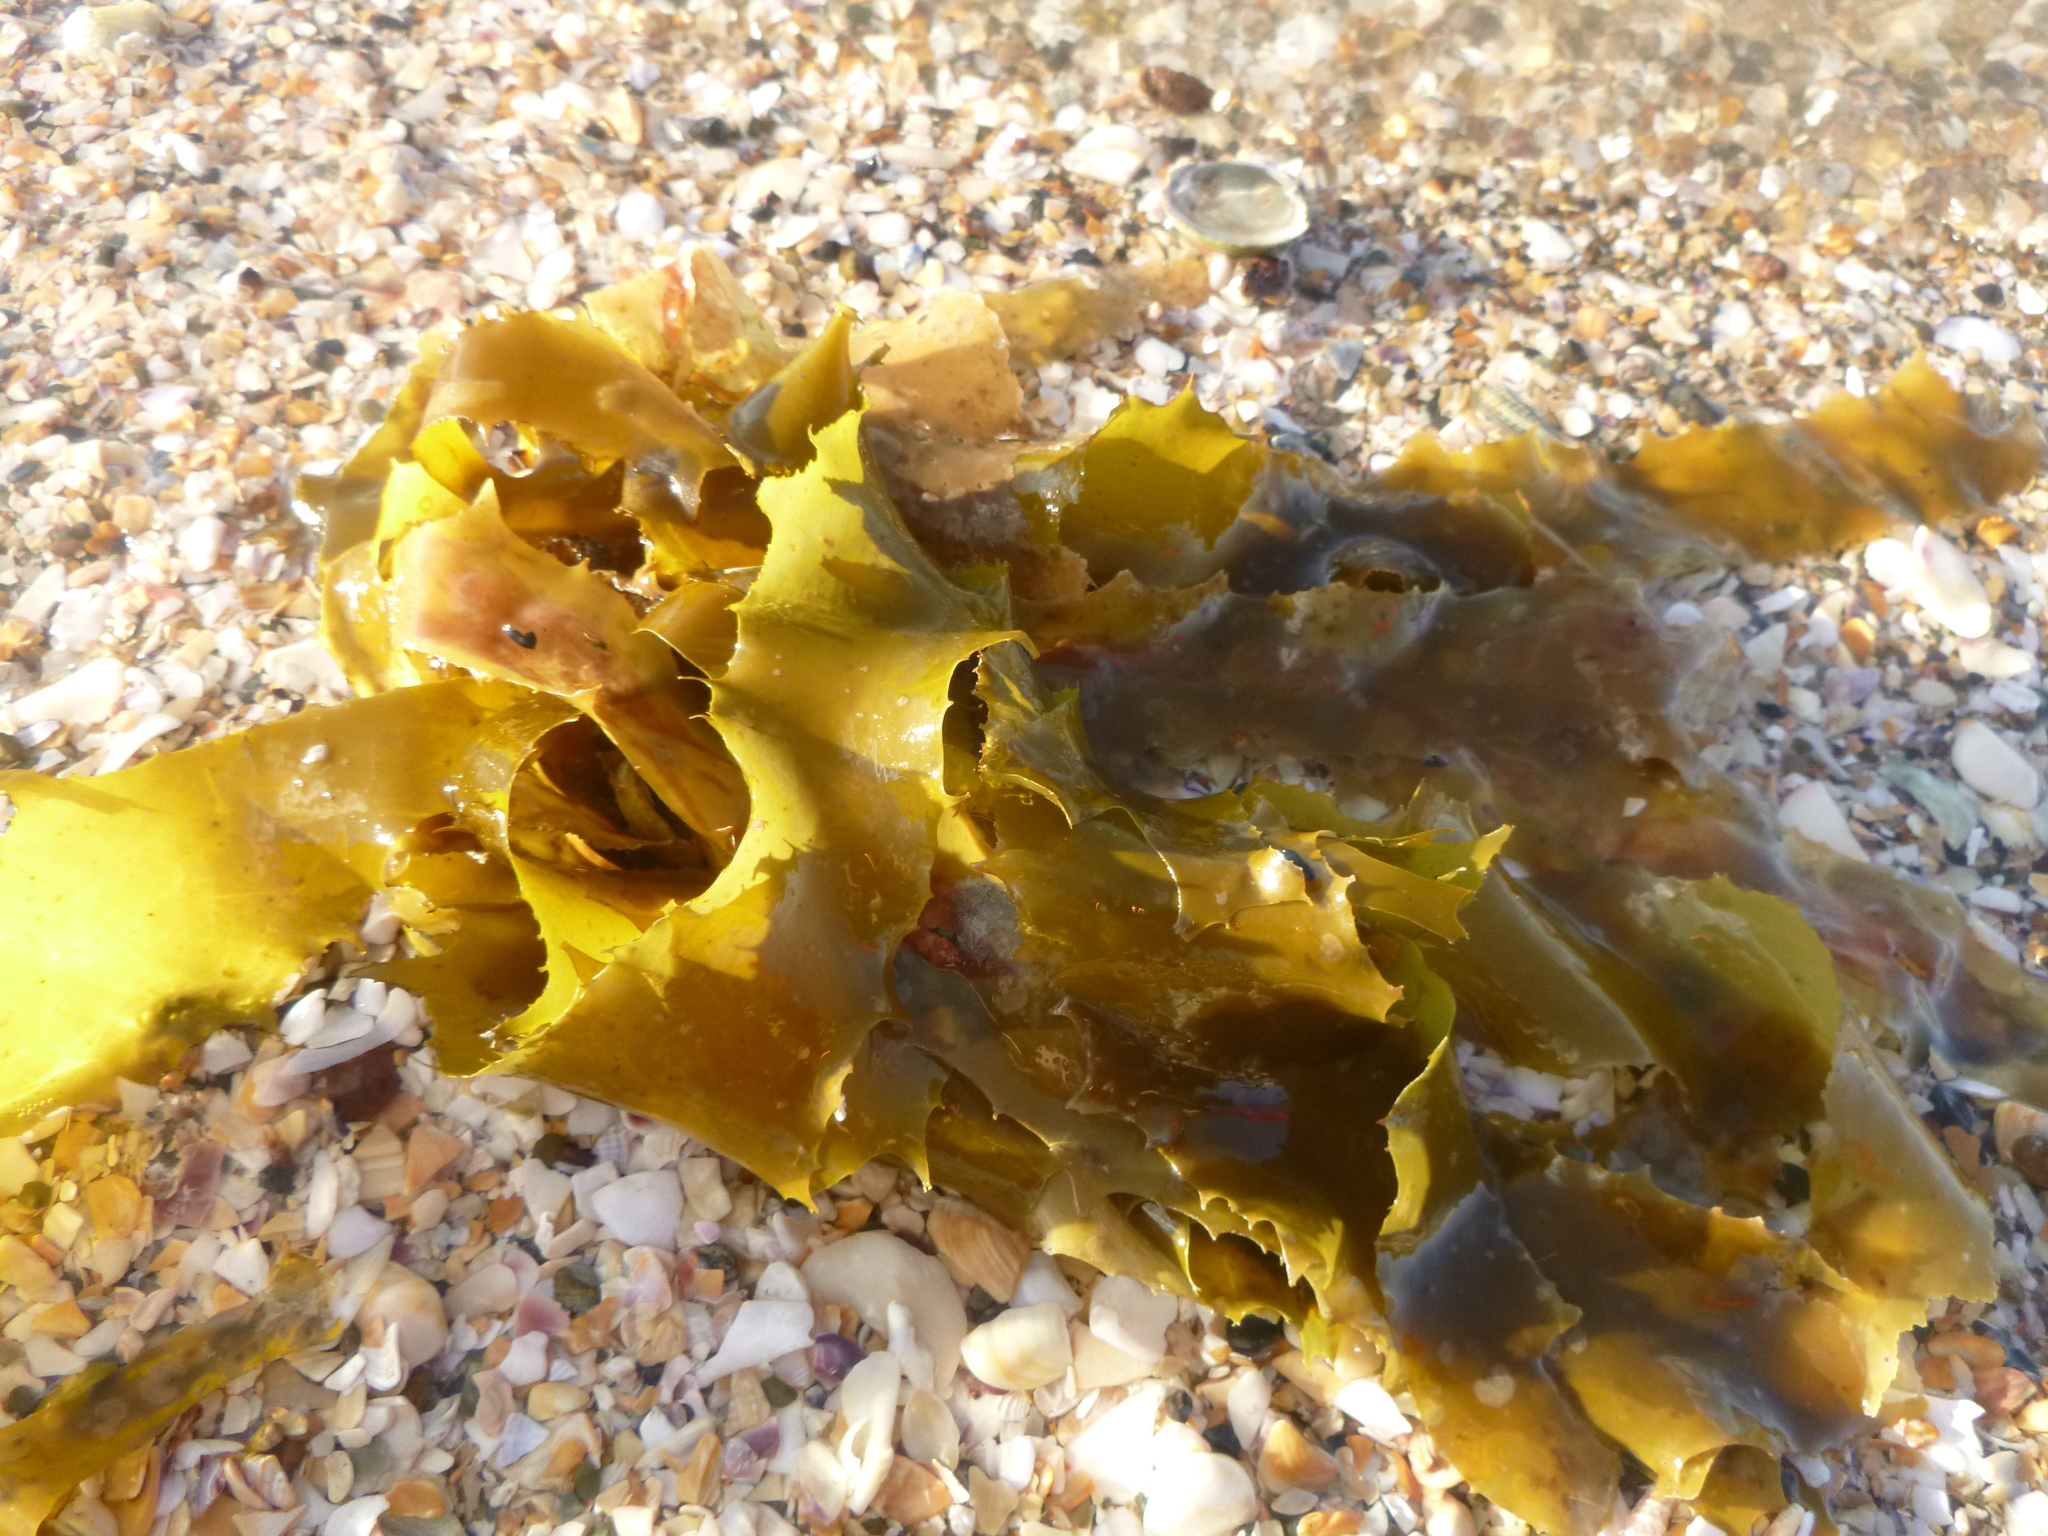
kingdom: Chromista
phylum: Ochrophyta
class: Phaeophyceae
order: Laminariales
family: Lessoniaceae
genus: Ecklonia
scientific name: Ecklonia radiata
